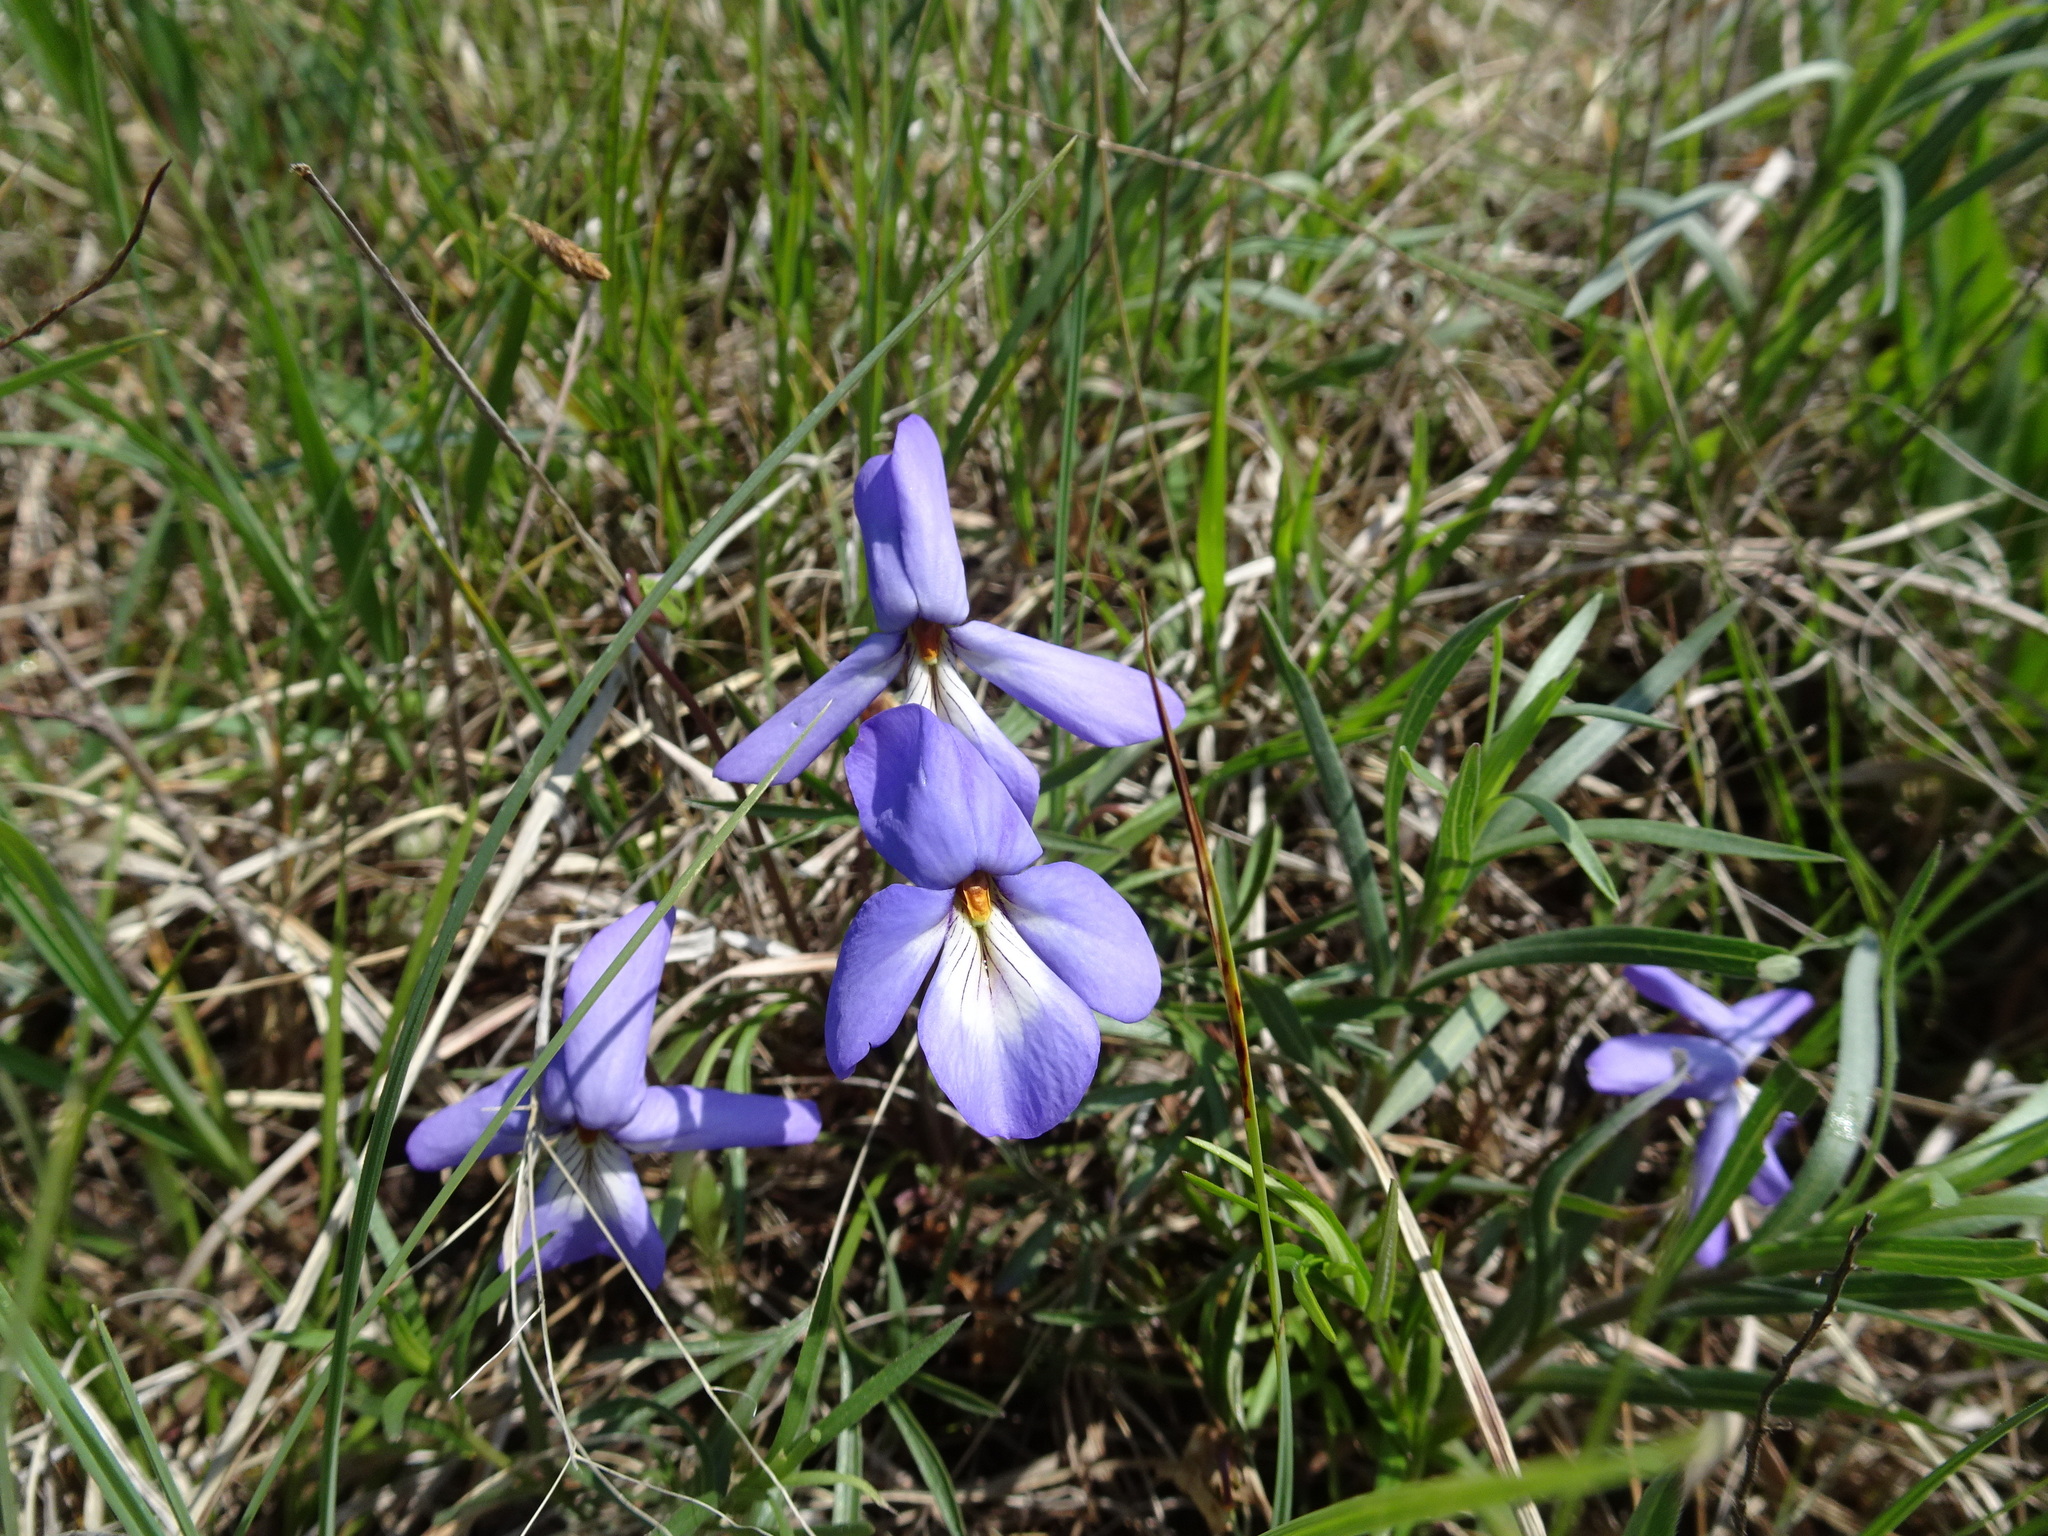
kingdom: Plantae
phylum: Tracheophyta
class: Magnoliopsida
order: Malpighiales
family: Violaceae
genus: Viola
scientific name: Viola pedata
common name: Pansy violet
